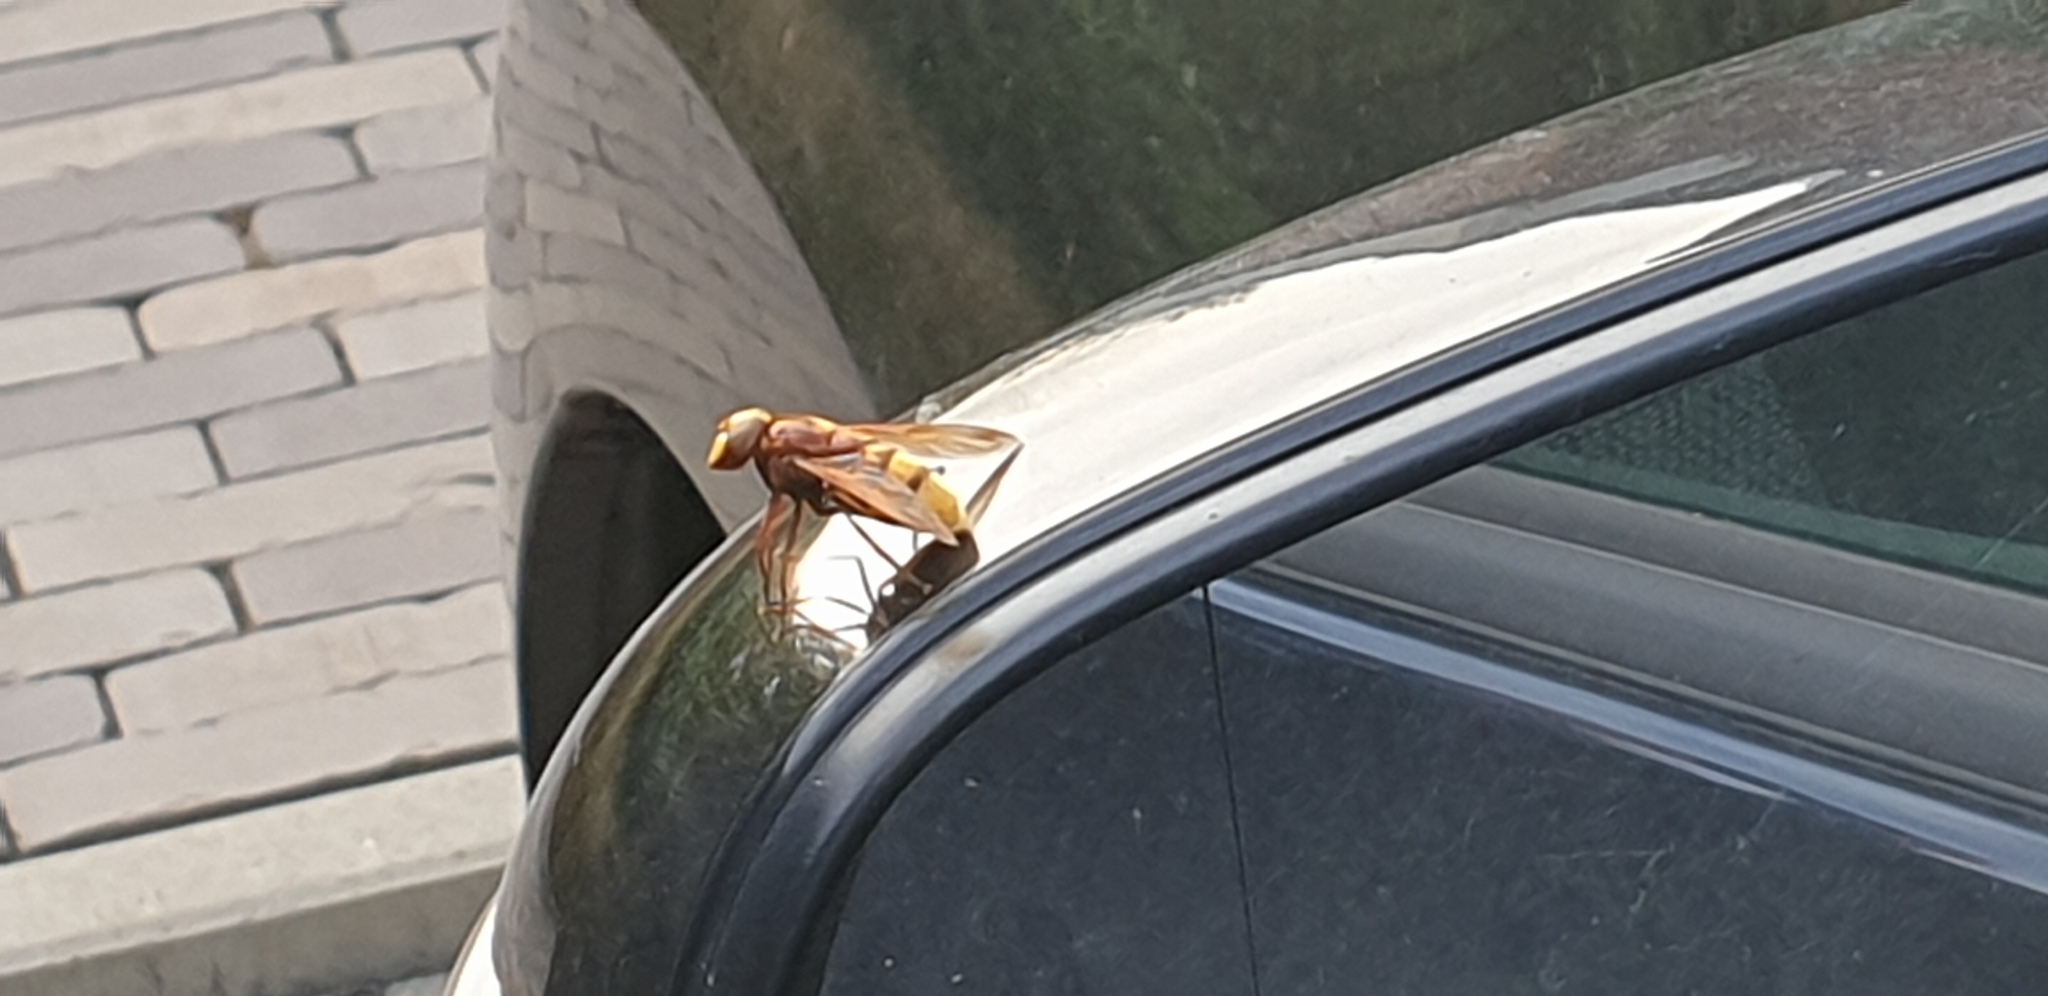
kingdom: Animalia
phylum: Arthropoda
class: Insecta
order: Diptera
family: Syrphidae
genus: Volucella
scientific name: Volucella zonaria
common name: Hornet hoverfly
